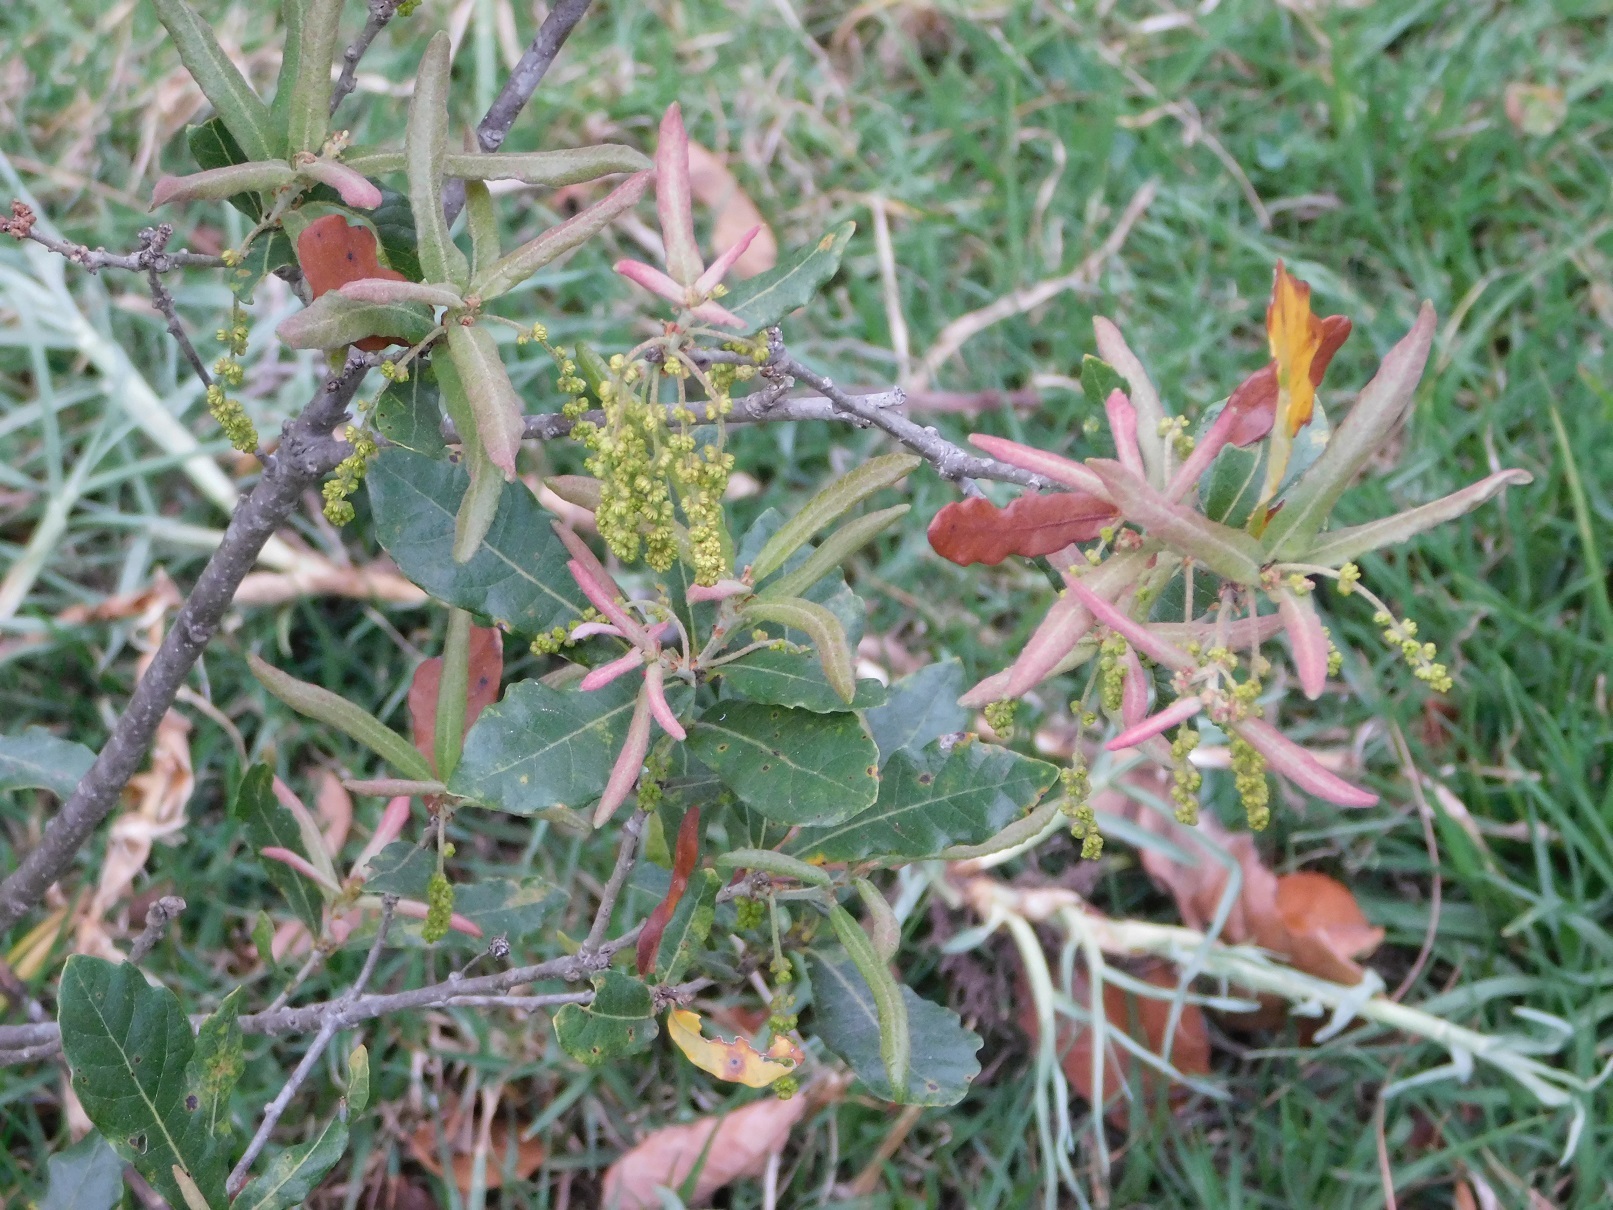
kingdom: Plantae
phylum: Tracheophyta
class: Magnoliopsida
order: Fagales
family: Fagaceae
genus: Quercus
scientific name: Quercus sebifera
